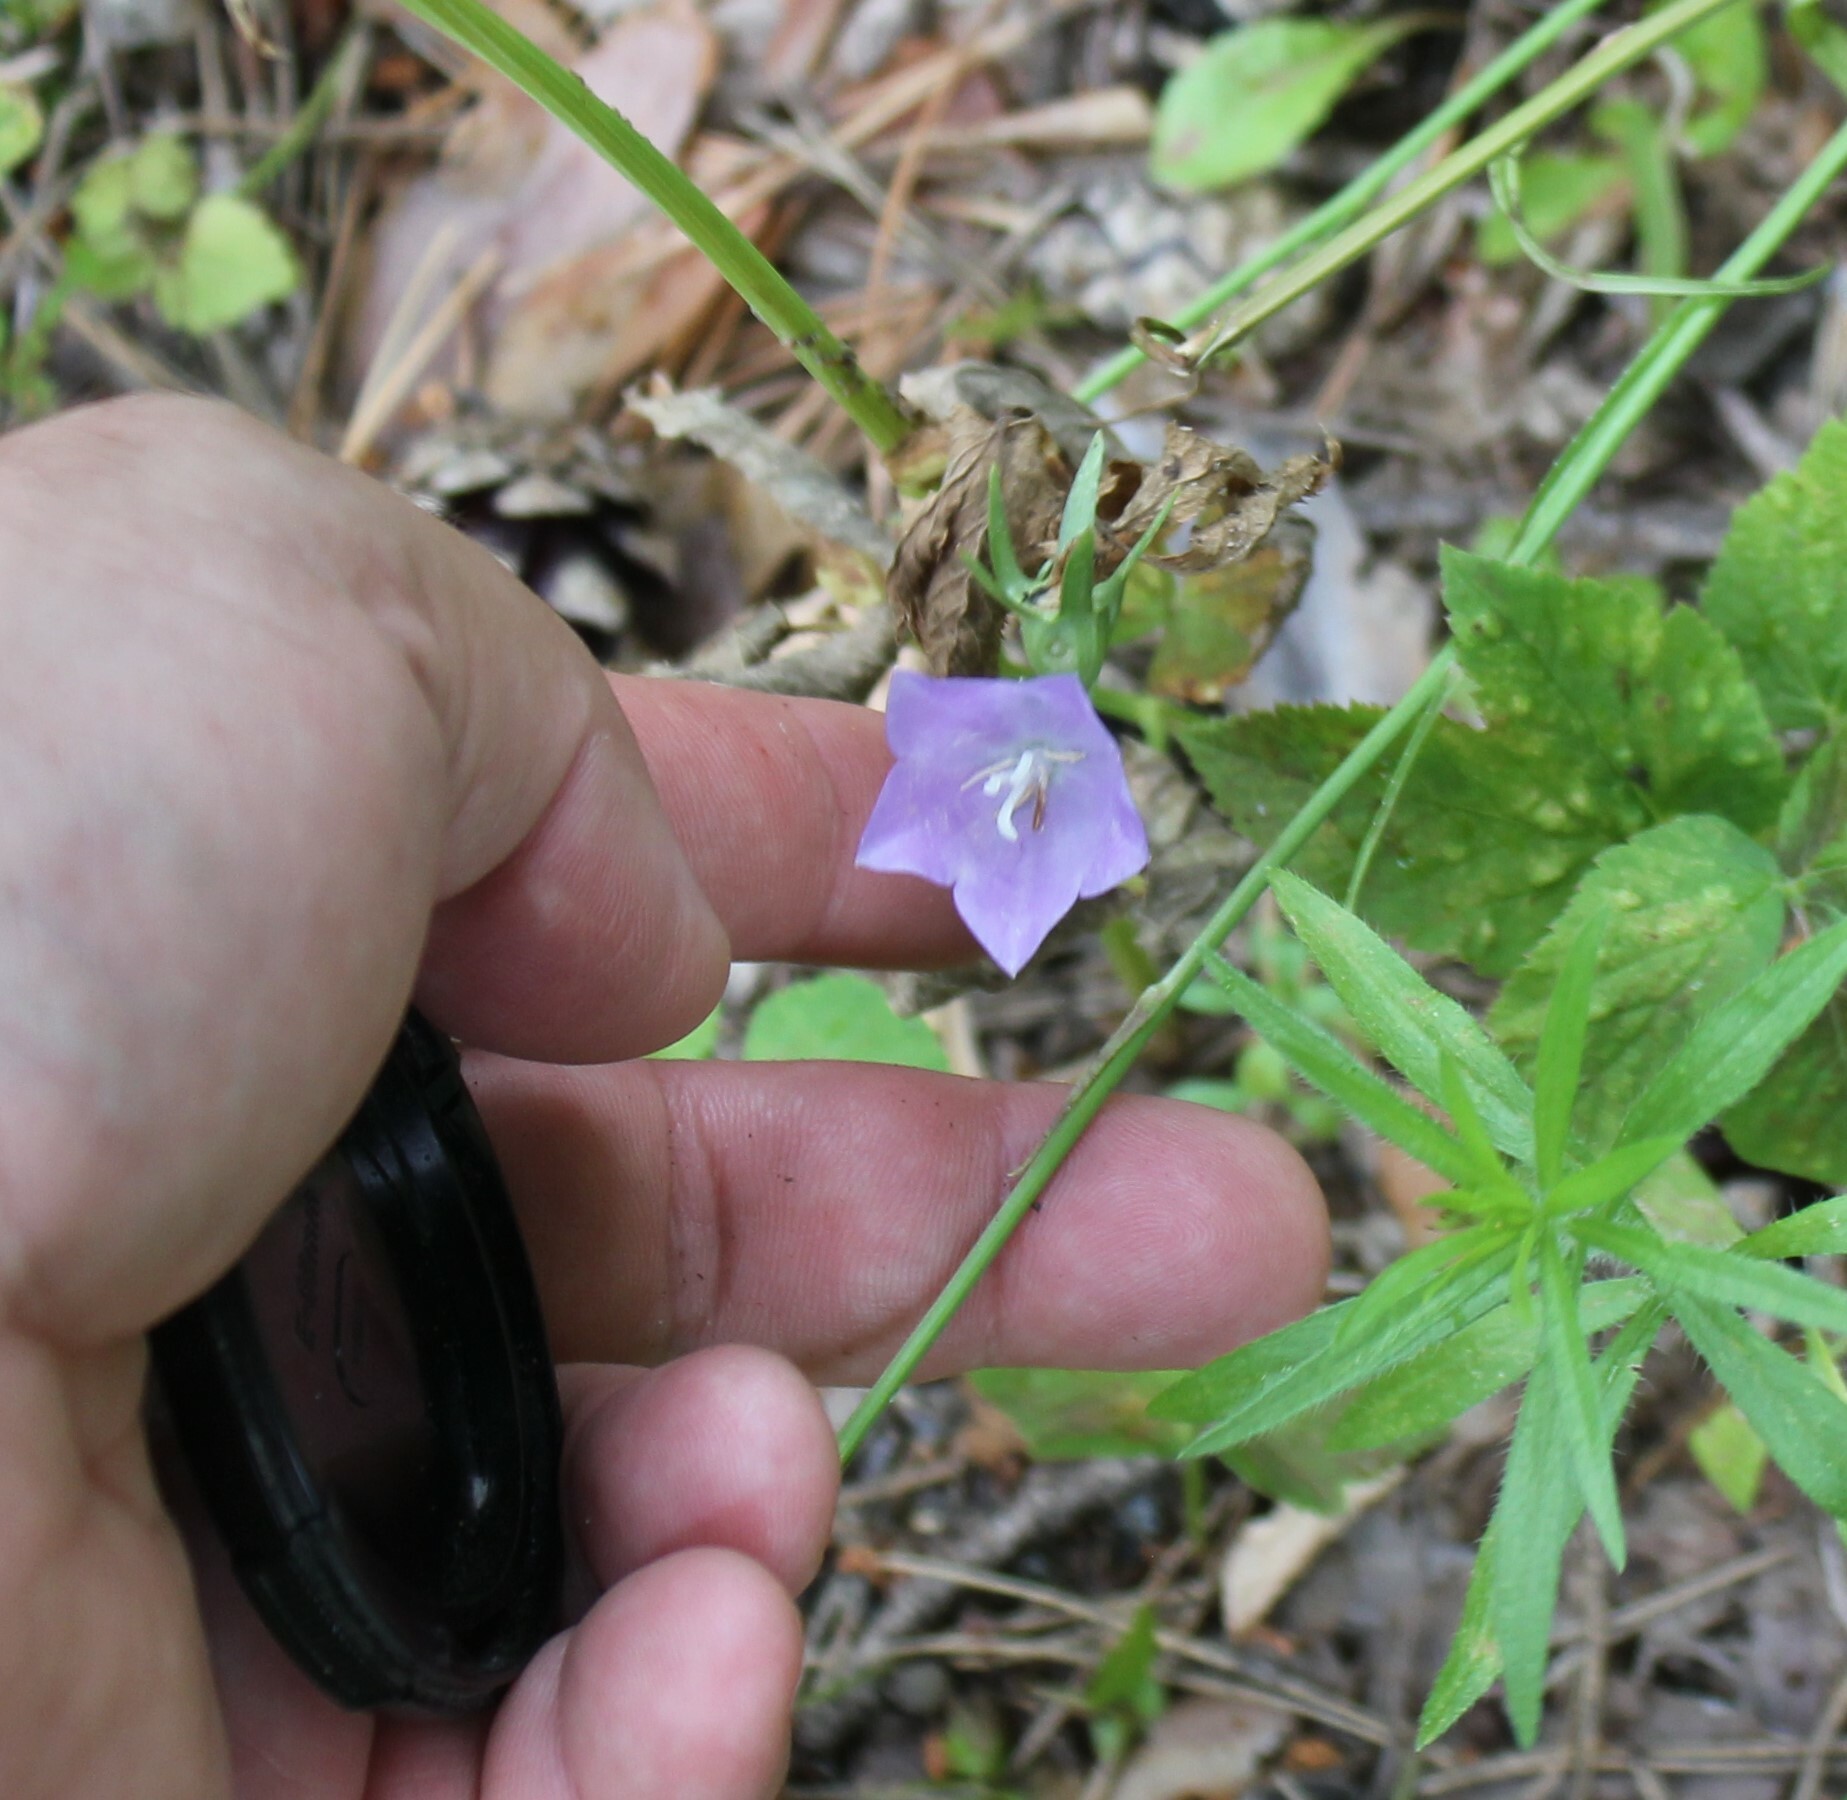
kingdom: Plantae
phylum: Tracheophyta
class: Magnoliopsida
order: Asterales
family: Campanulaceae
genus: Campanula
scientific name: Campanula persicifolia
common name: Peach-leaved bellflower
